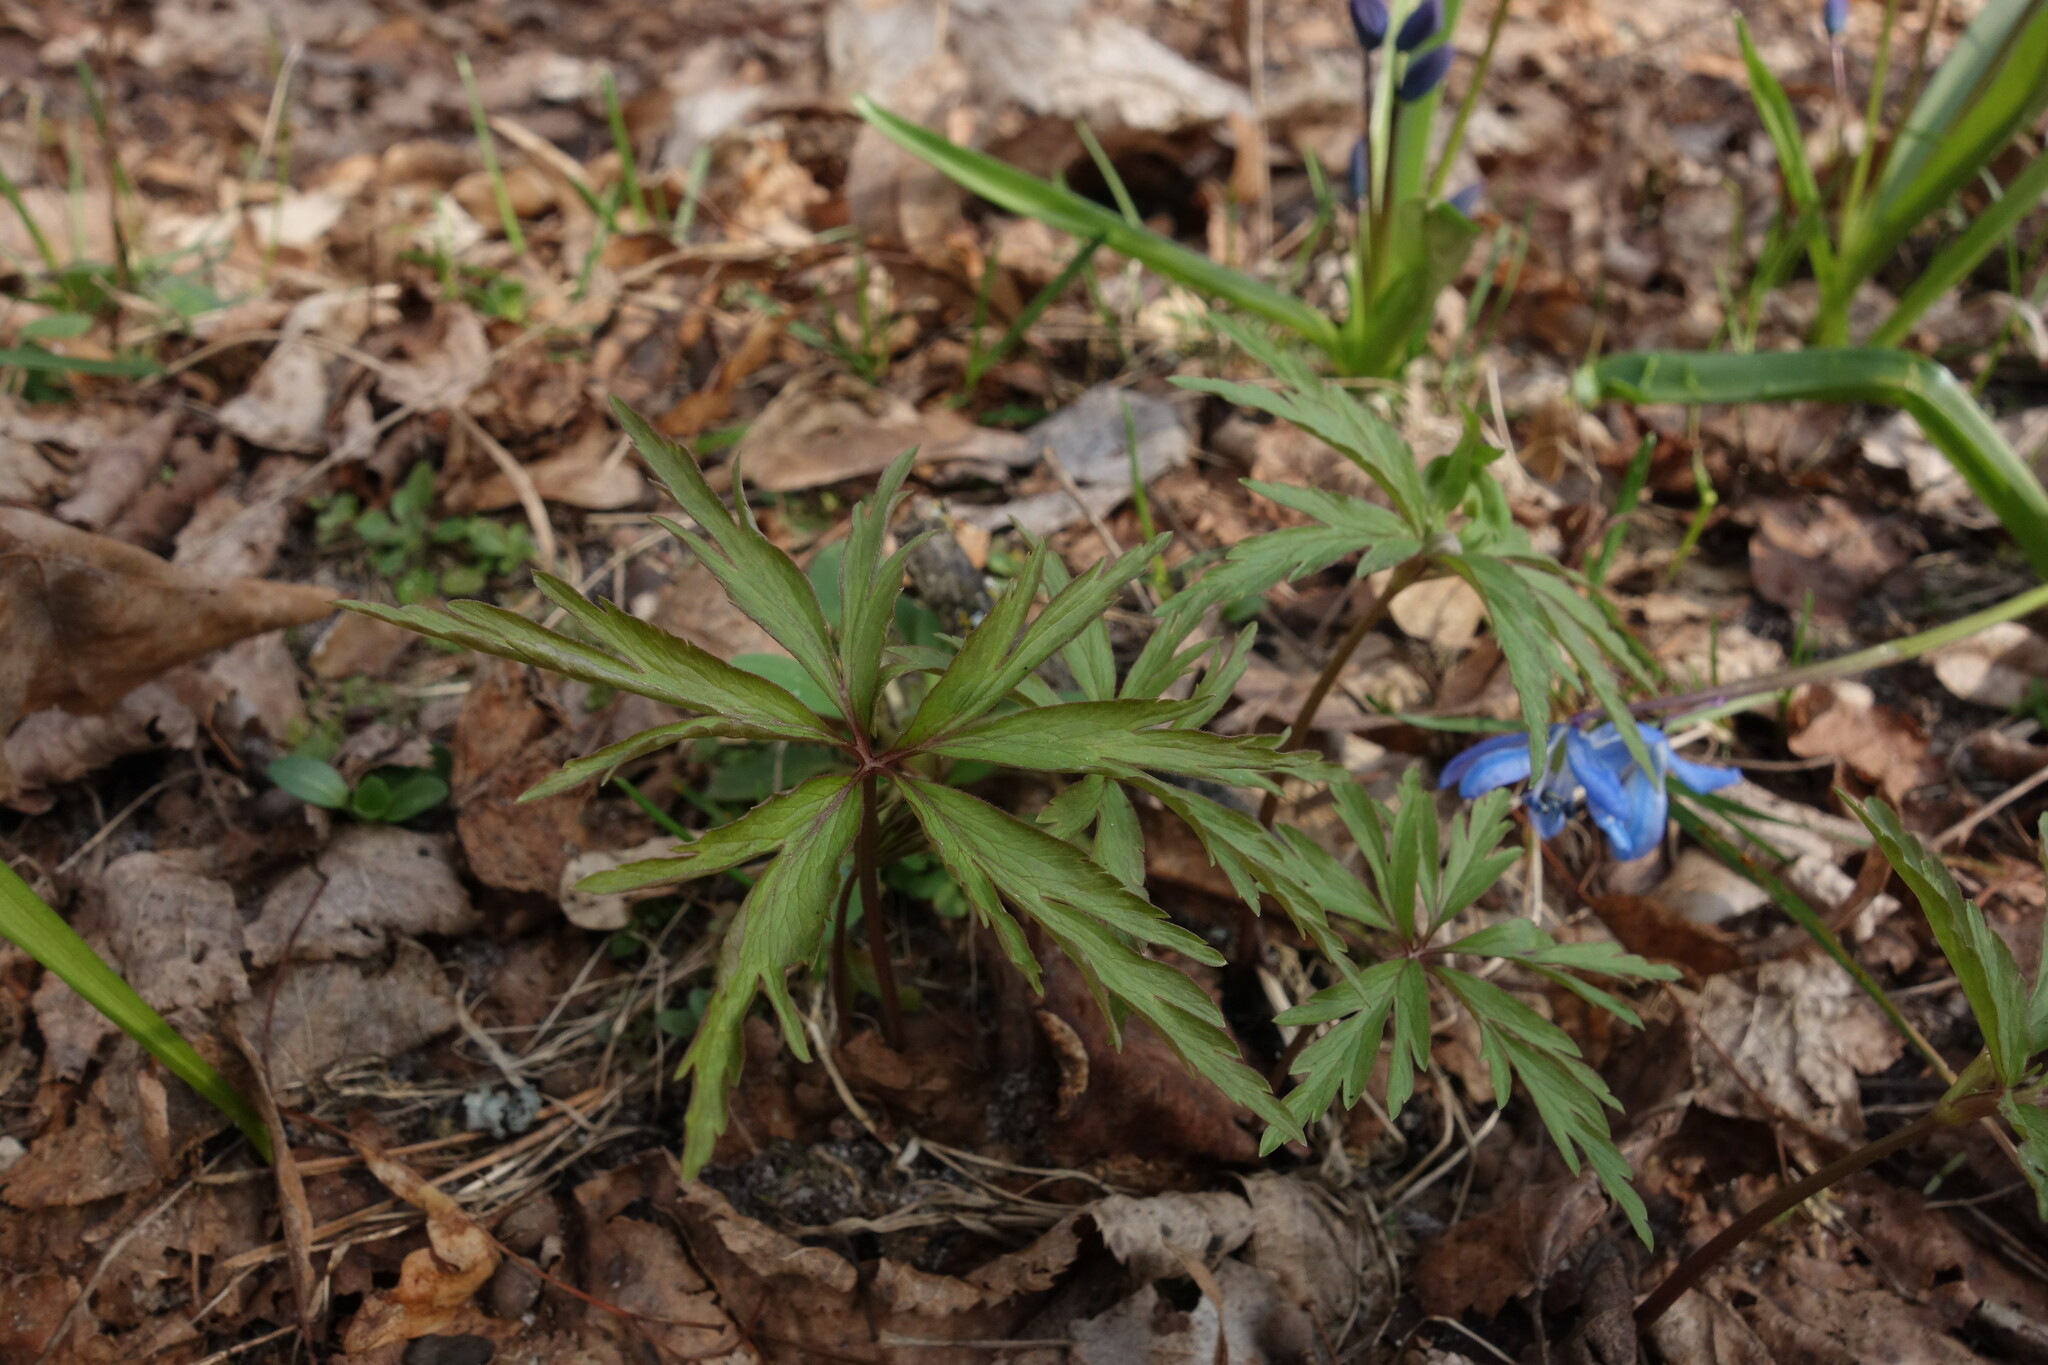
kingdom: Plantae
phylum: Tracheophyta
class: Magnoliopsida
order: Ranunculales
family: Ranunculaceae
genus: Anemone
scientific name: Anemone ranunculoides
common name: Yellow anemone
